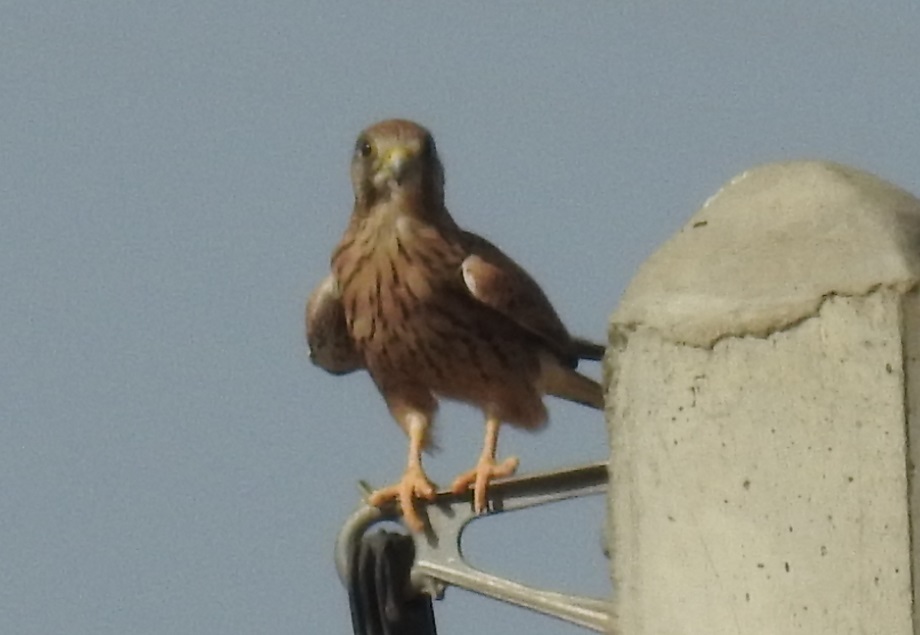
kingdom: Animalia
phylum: Chordata
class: Aves
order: Falconiformes
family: Falconidae
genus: Falco
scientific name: Falco tinnunculus
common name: Common kestrel
